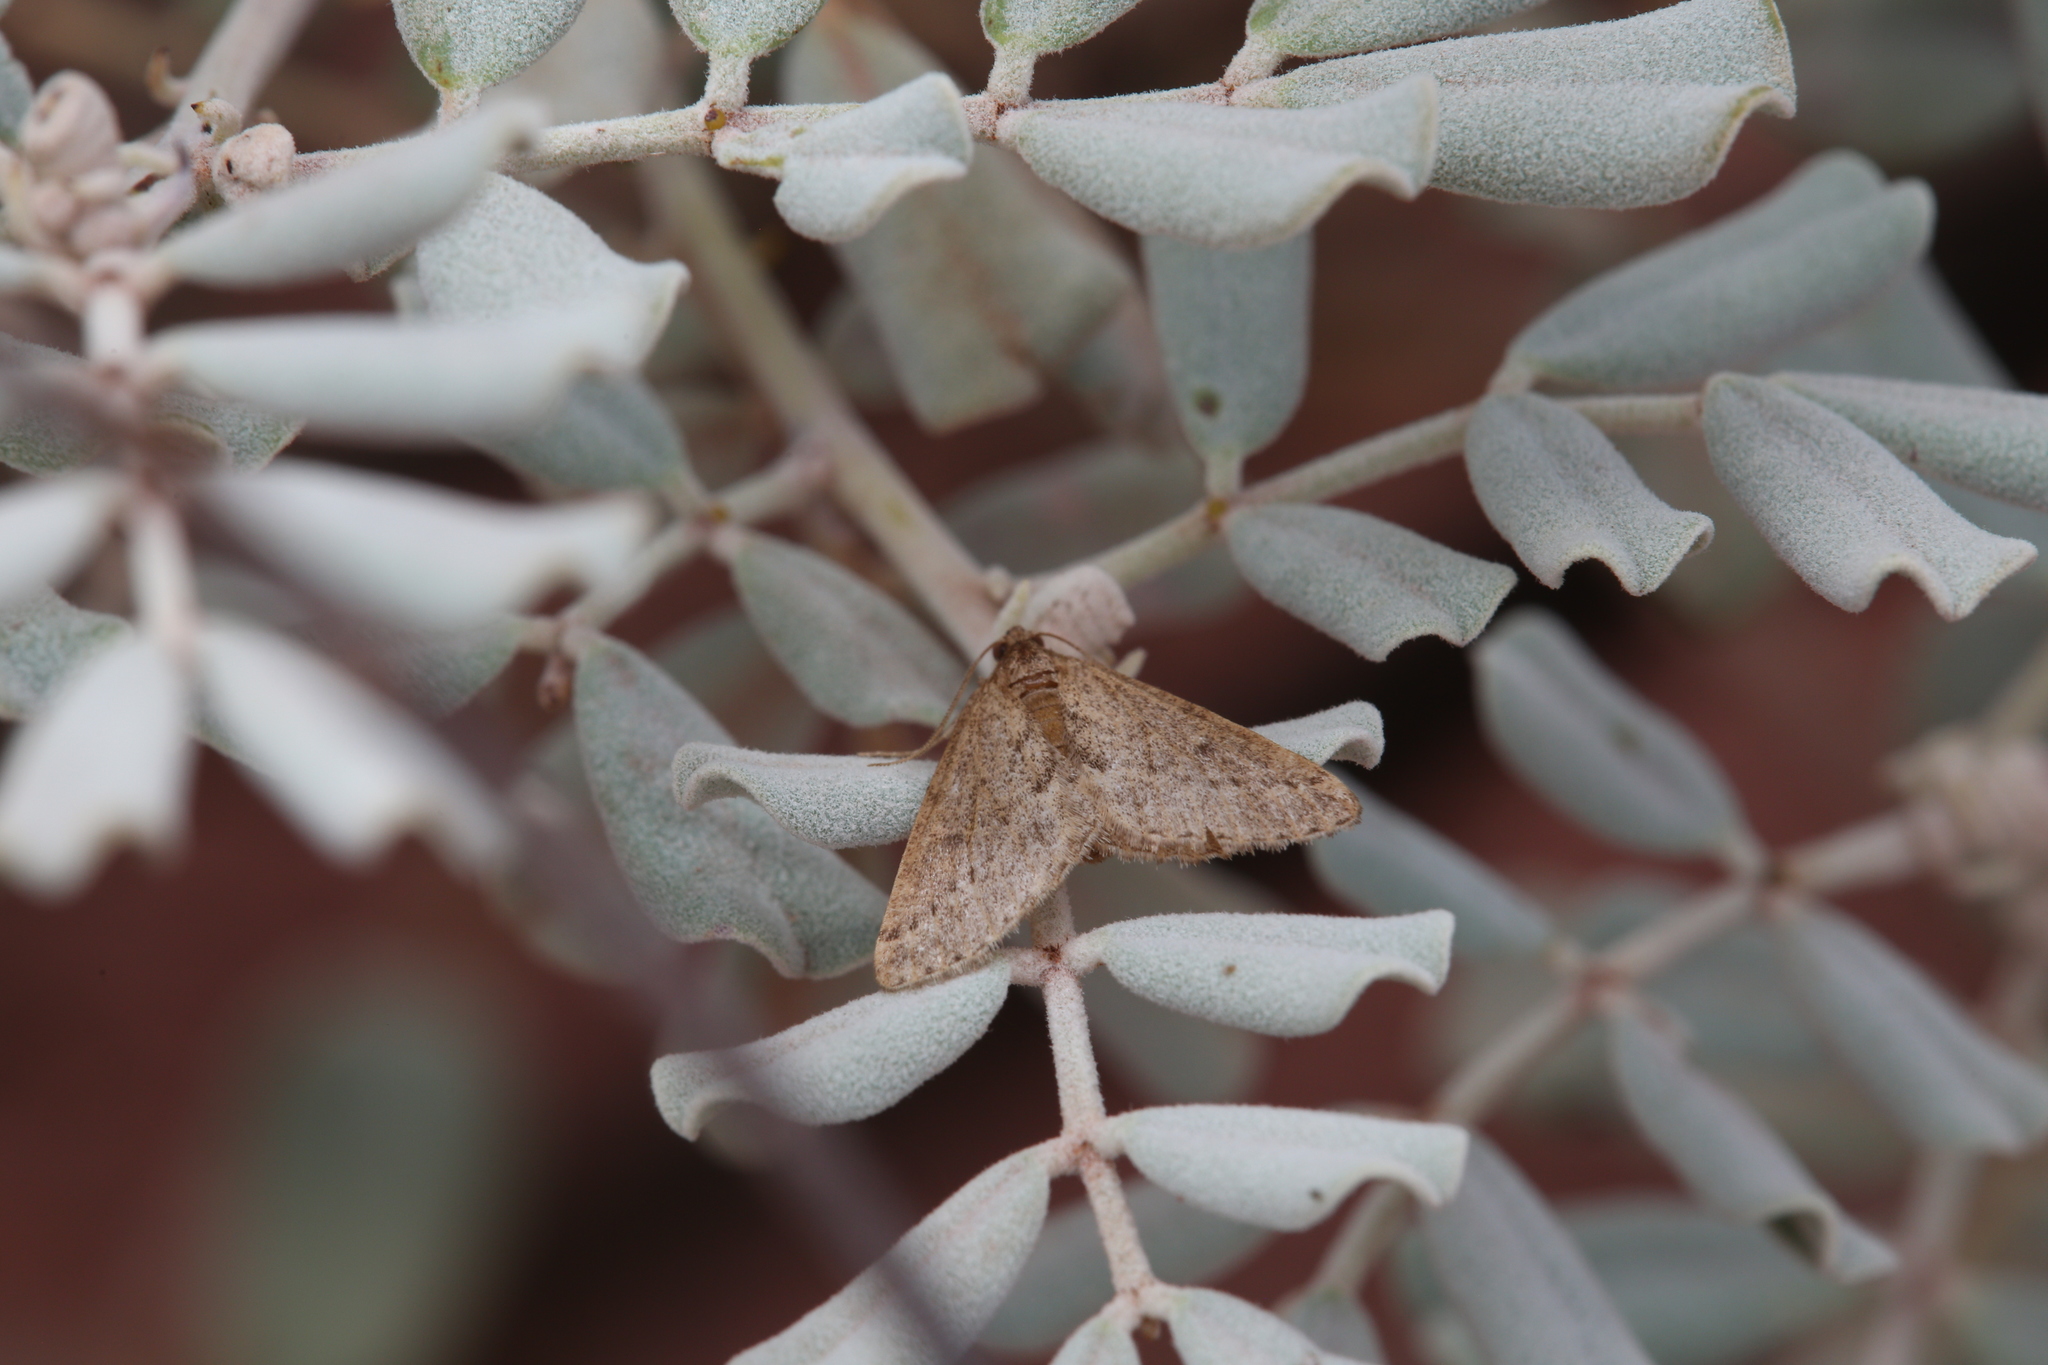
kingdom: Animalia
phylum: Arthropoda
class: Insecta
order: Lepidoptera
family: Geometridae
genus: Aglossophanes
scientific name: Aglossophanes adoxima
